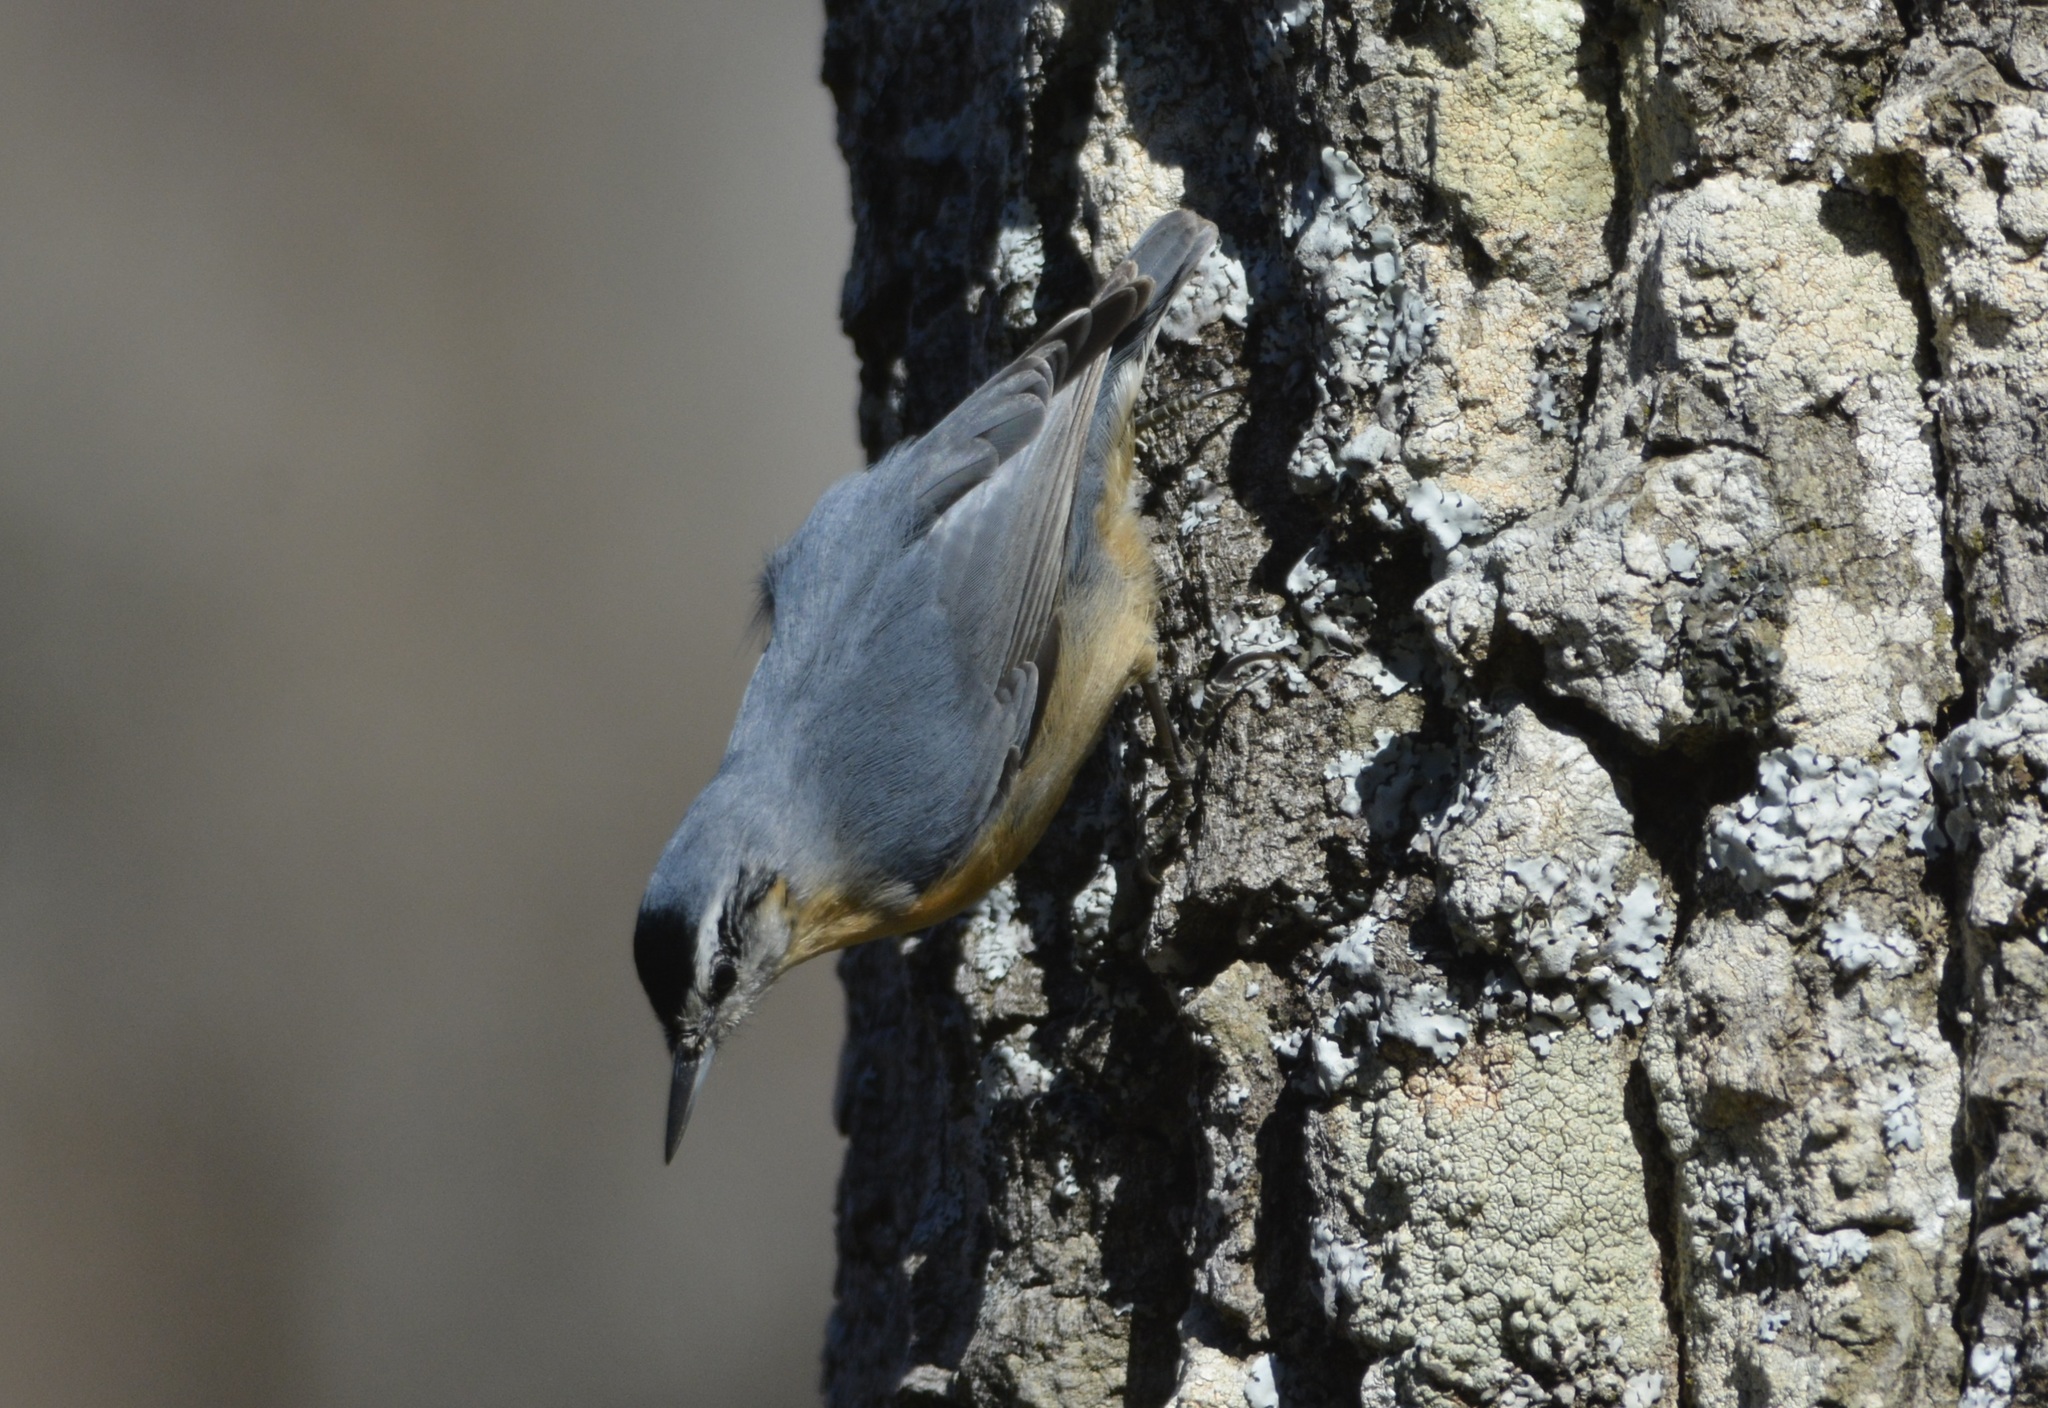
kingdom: Animalia
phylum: Chordata
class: Aves
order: Passeriformes
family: Sittidae
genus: Sitta
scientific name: Sitta ledanti
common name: Algerian nuthatch
